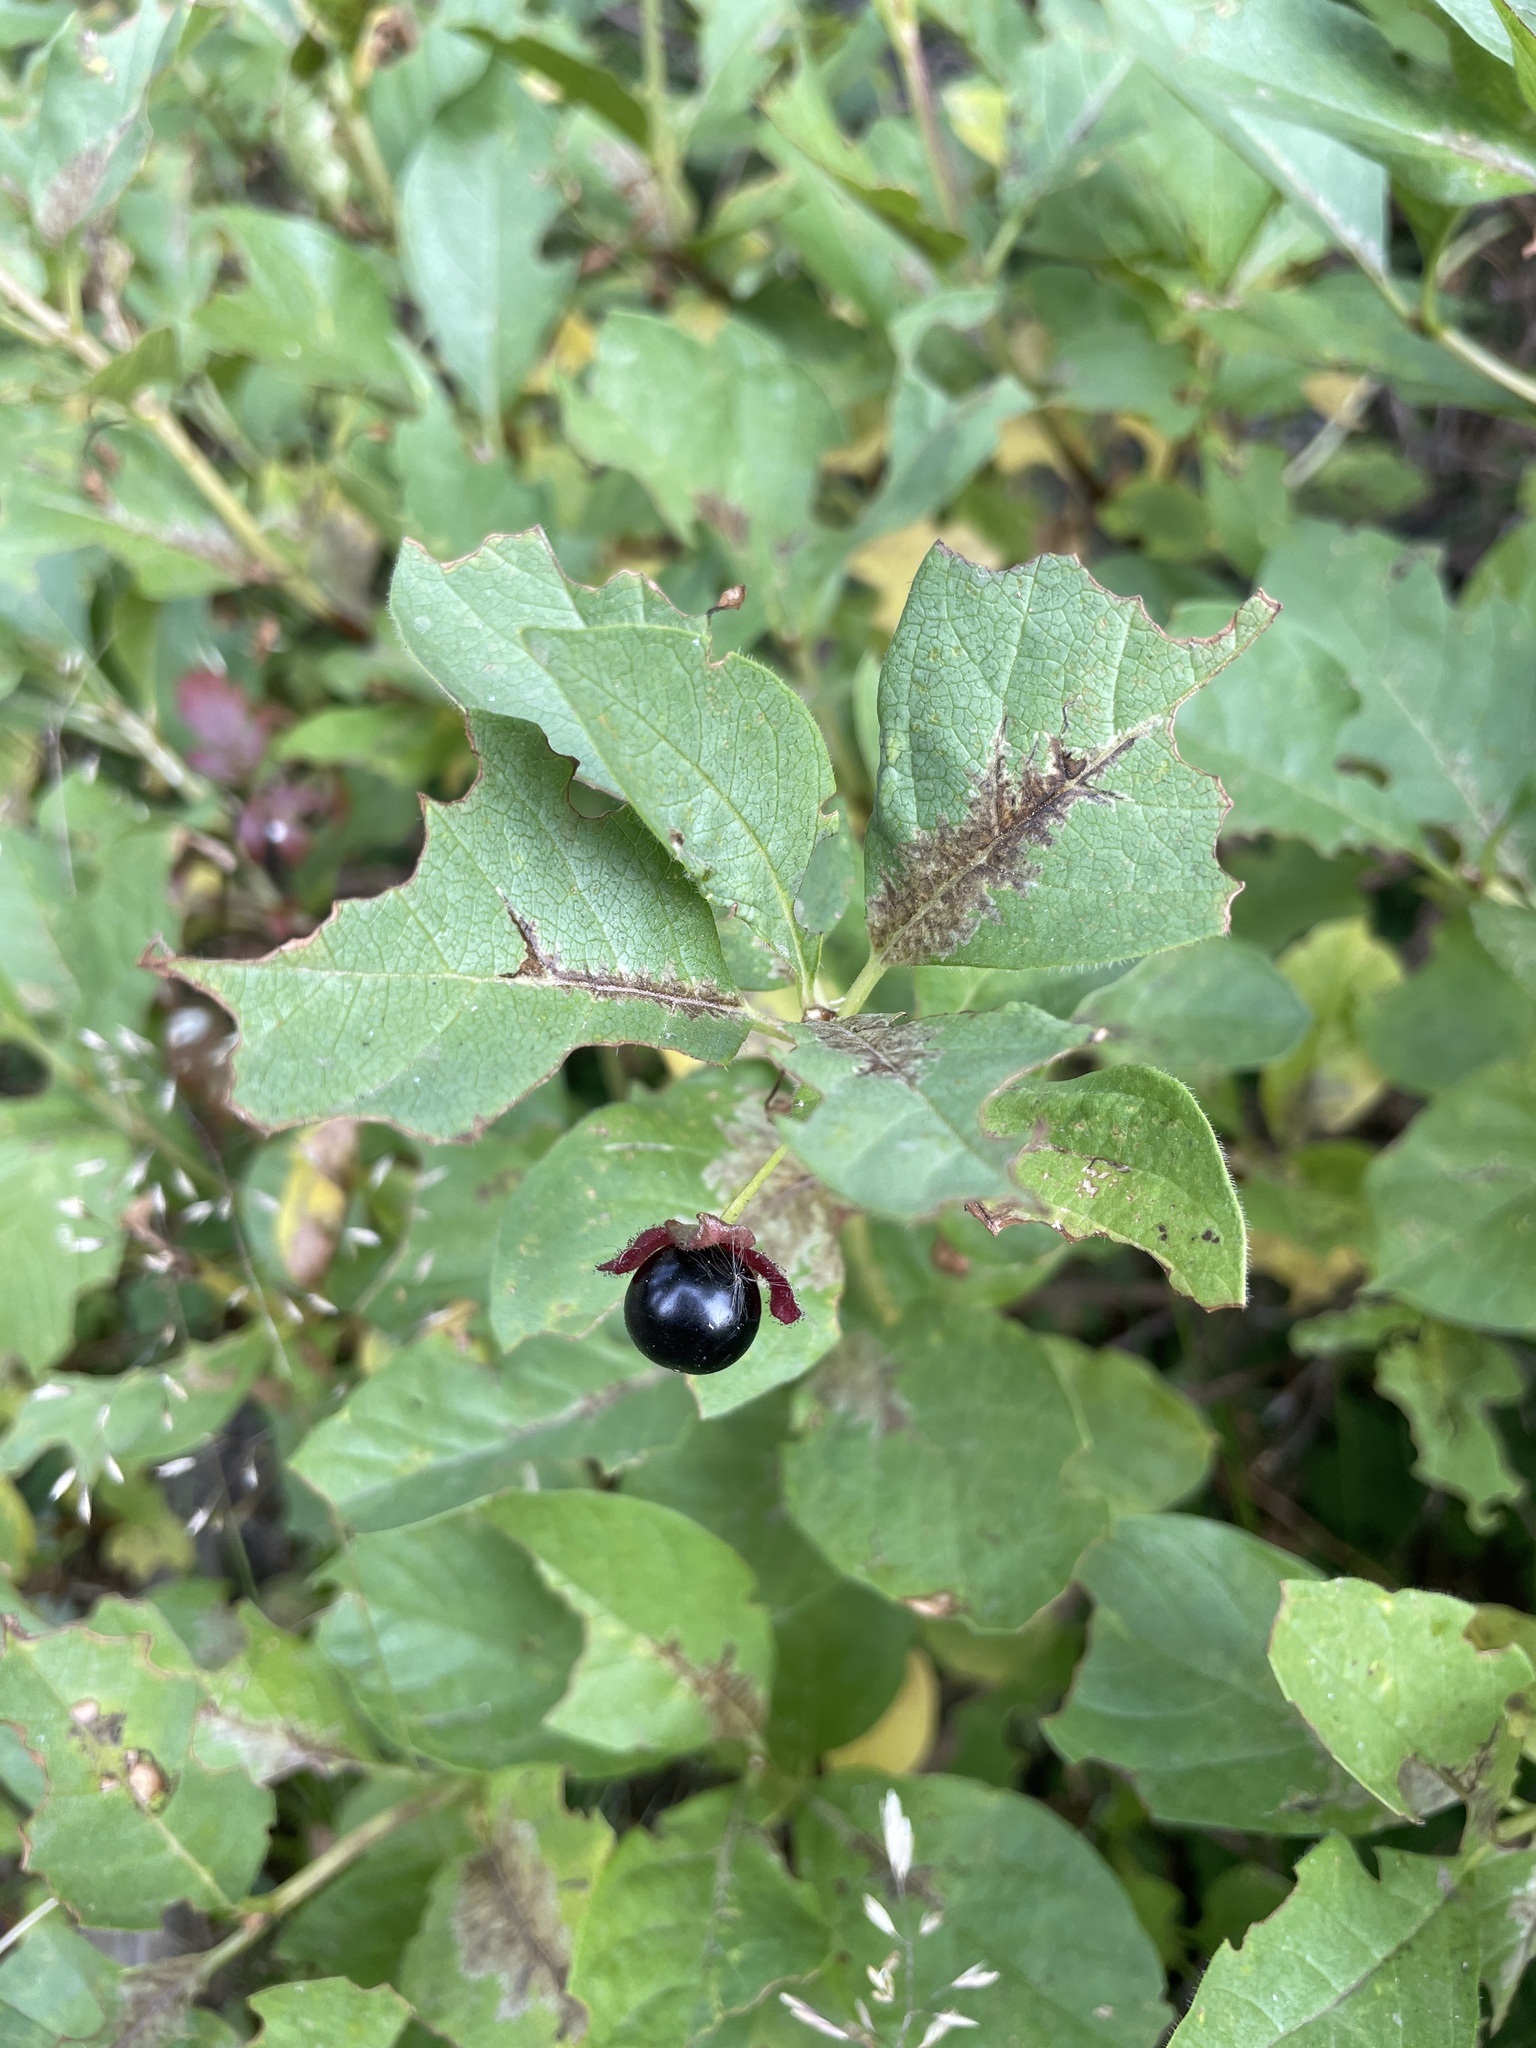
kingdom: Plantae
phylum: Tracheophyta
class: Magnoliopsida
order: Dipsacales
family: Caprifoliaceae
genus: Lonicera
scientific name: Lonicera involucrata
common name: Californian honeysuckle
